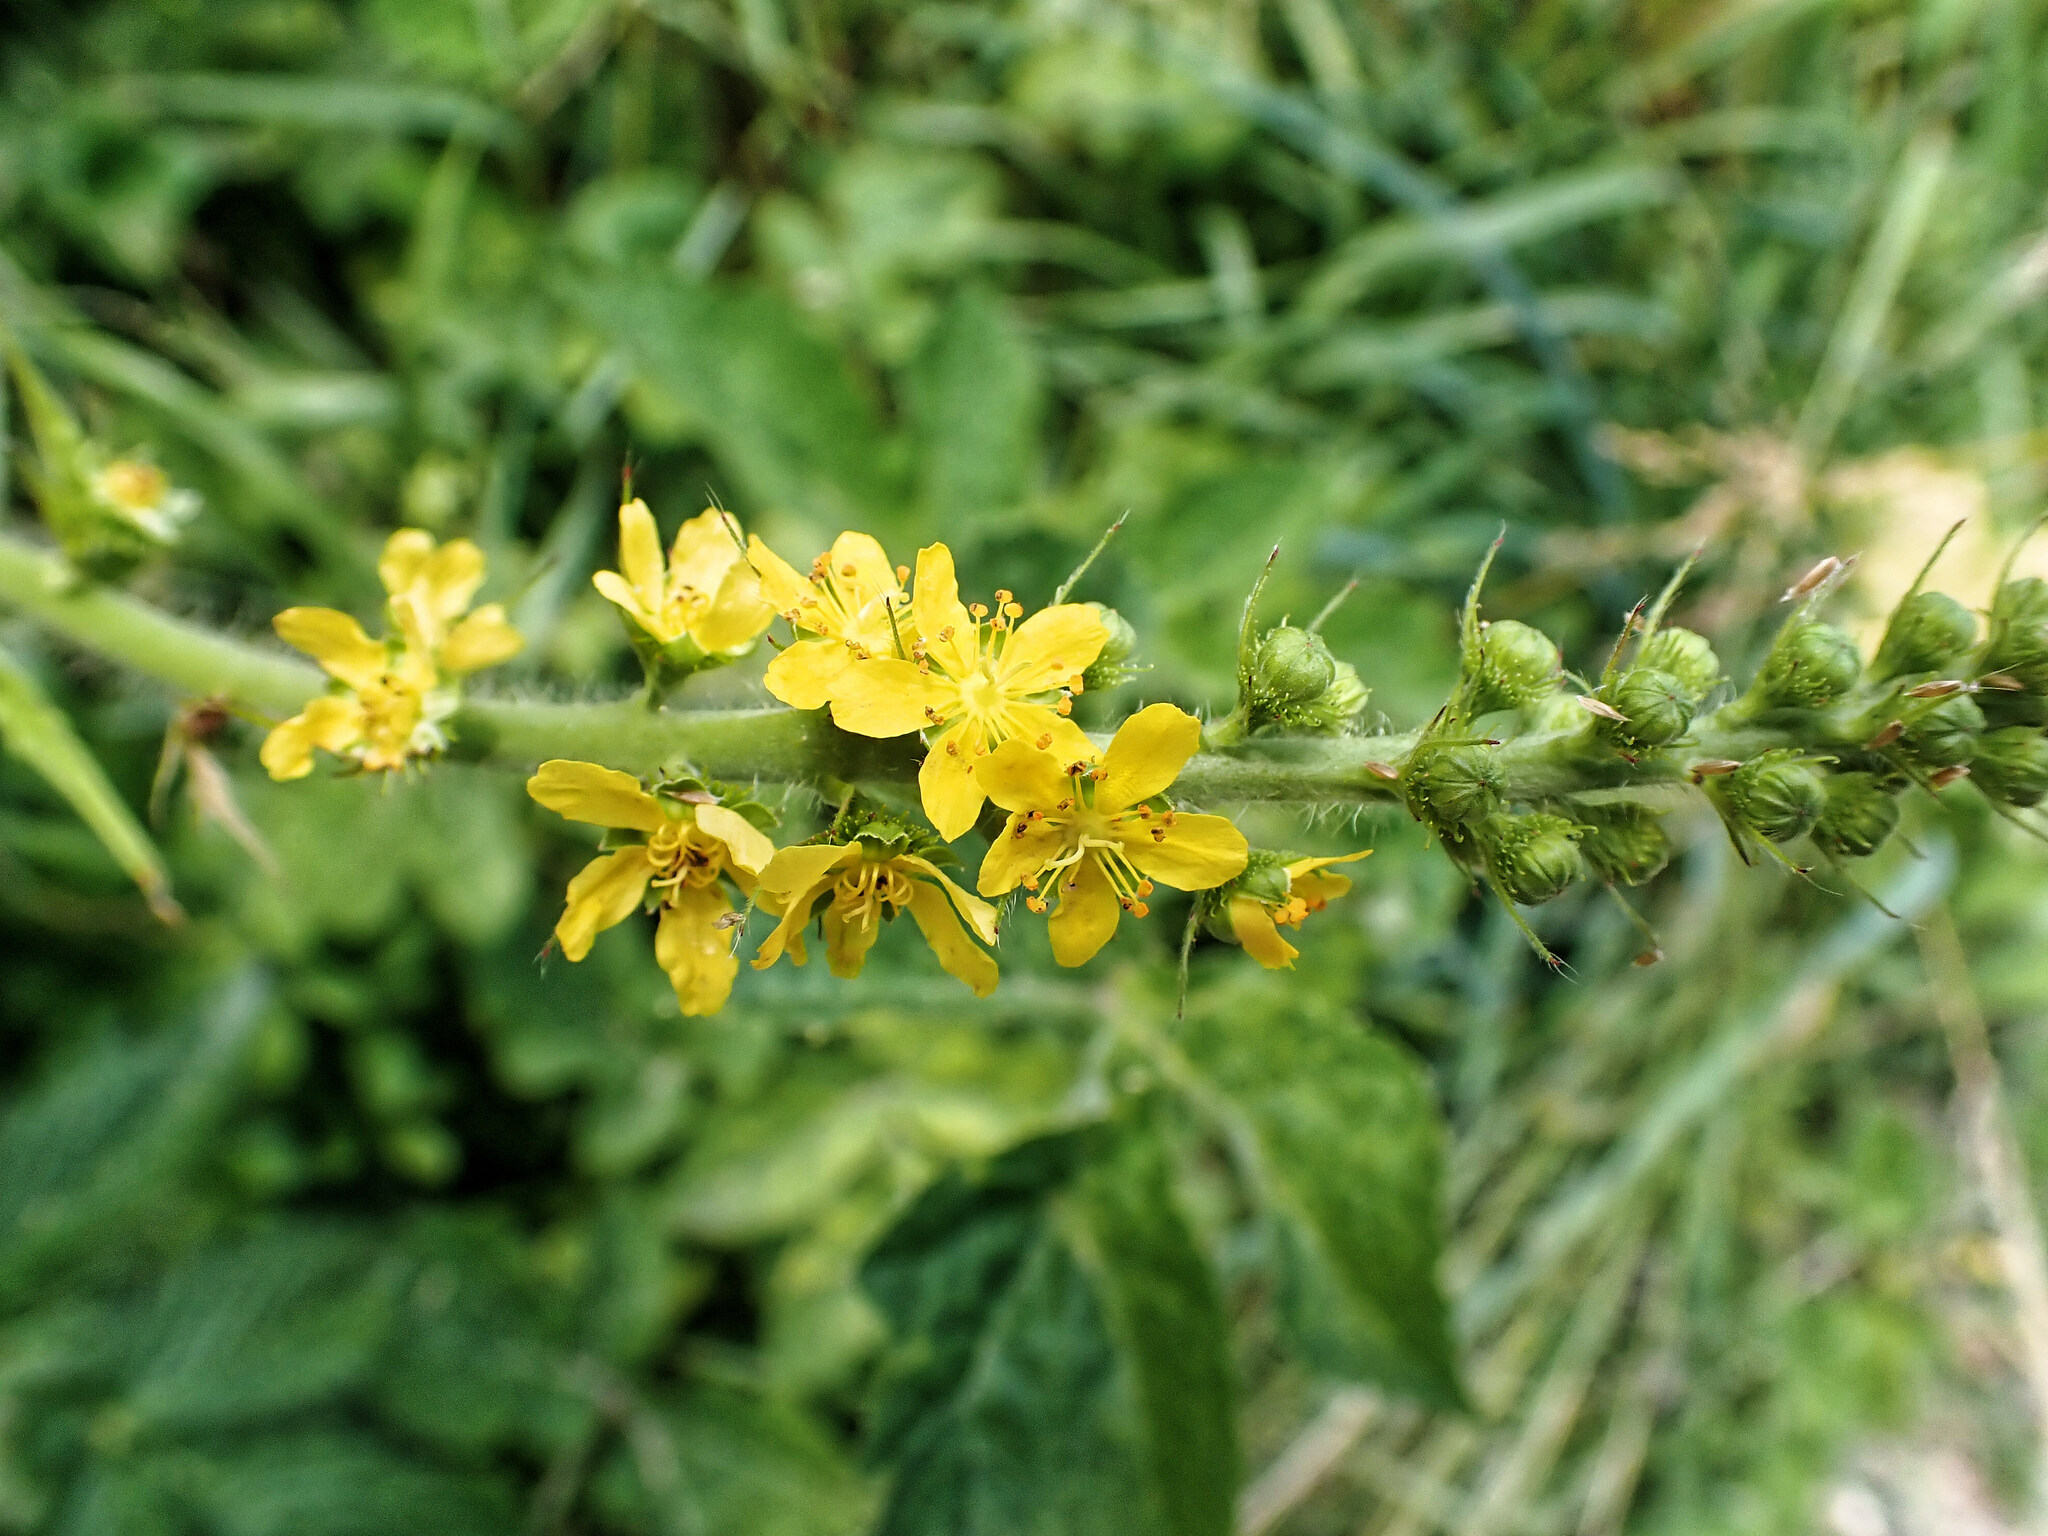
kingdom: Plantae
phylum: Tracheophyta
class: Magnoliopsida
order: Rosales
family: Rosaceae
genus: Agrimonia
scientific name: Agrimonia eupatoria
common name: Agrimony
